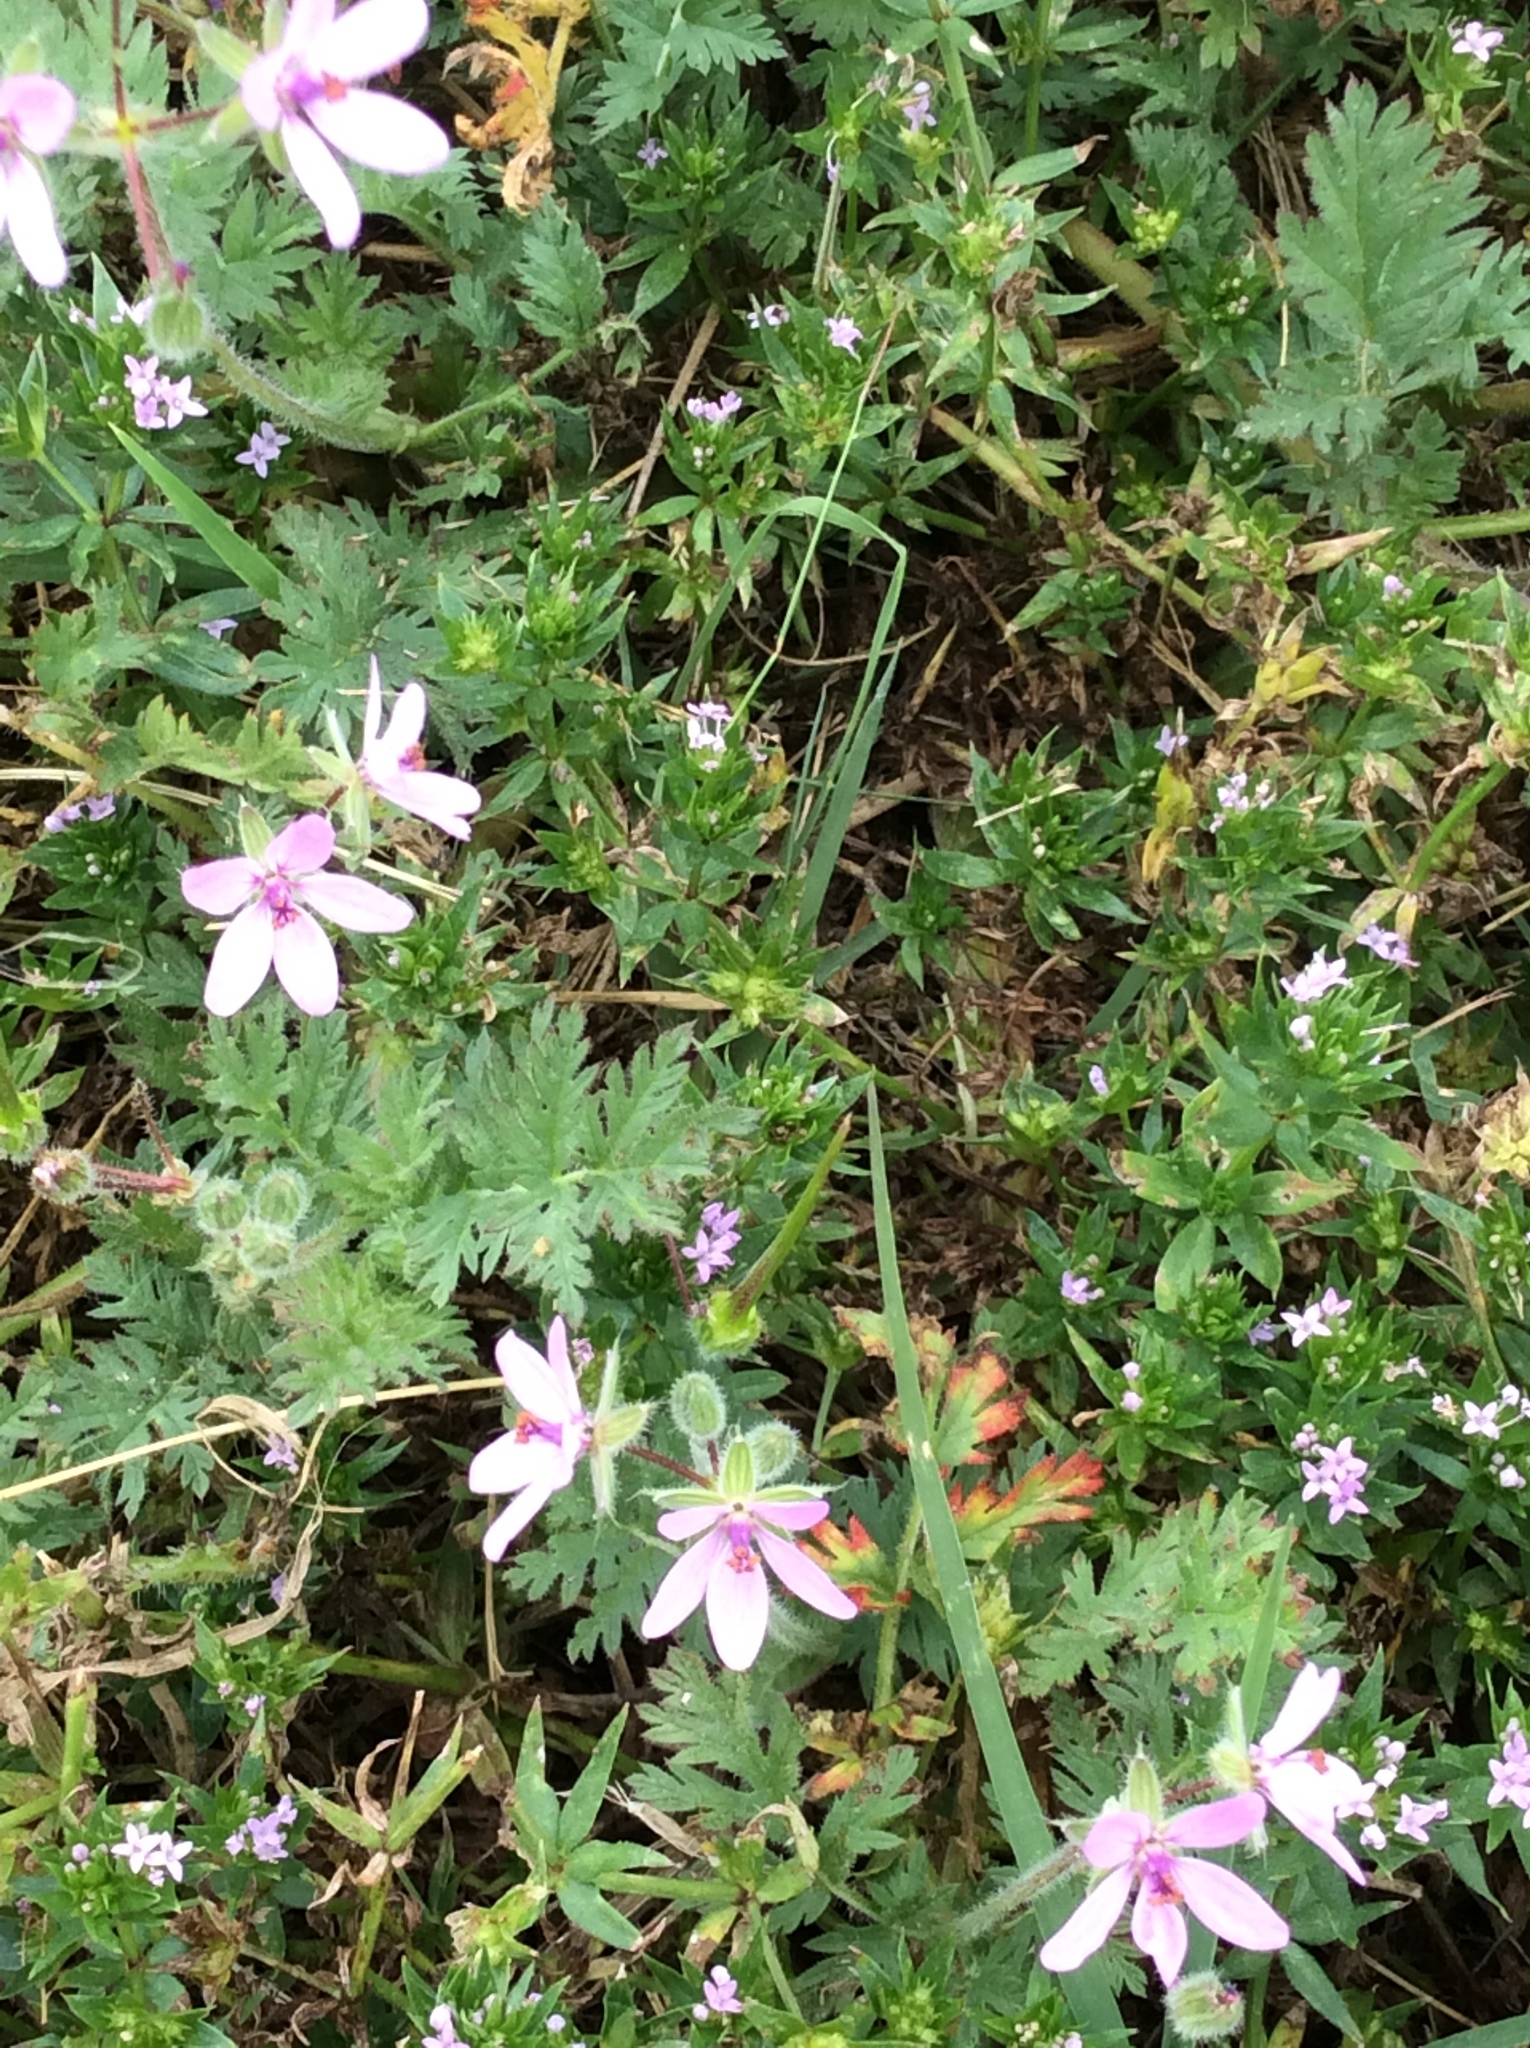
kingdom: Plantae
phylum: Tracheophyta
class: Magnoliopsida
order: Geraniales
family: Geraniaceae
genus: Erodium
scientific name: Erodium cicutarium
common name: Common stork's-bill
